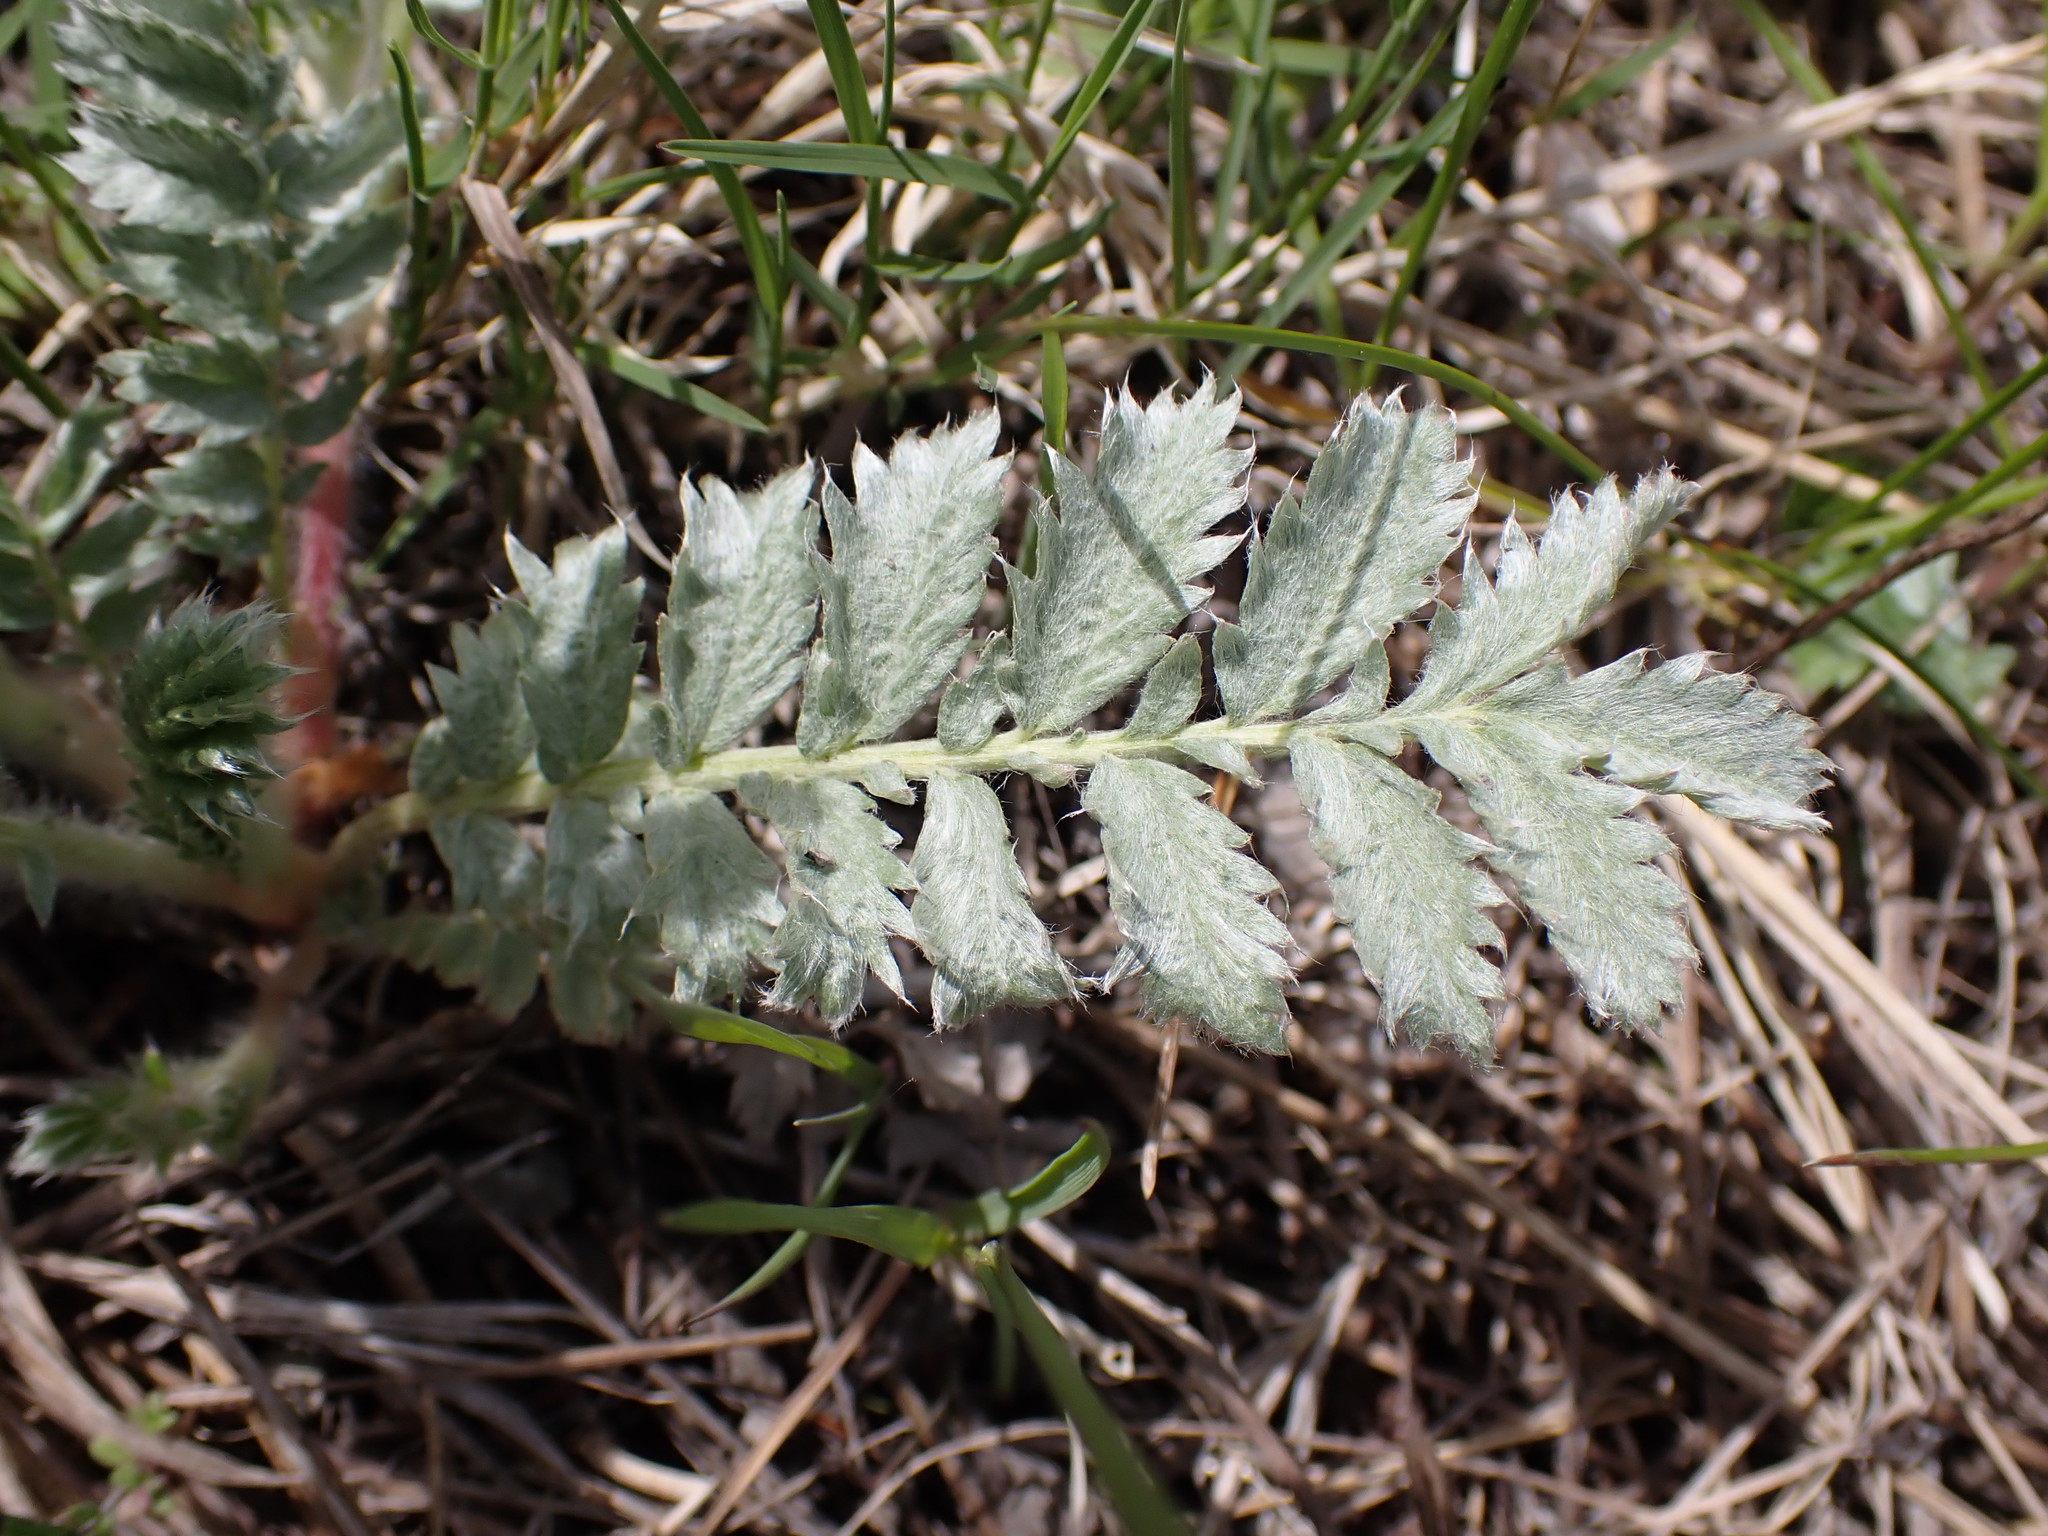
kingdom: Plantae
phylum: Tracheophyta
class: Magnoliopsida
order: Rosales
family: Rosaceae
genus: Argentina
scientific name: Argentina anserina
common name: Common silverweed
